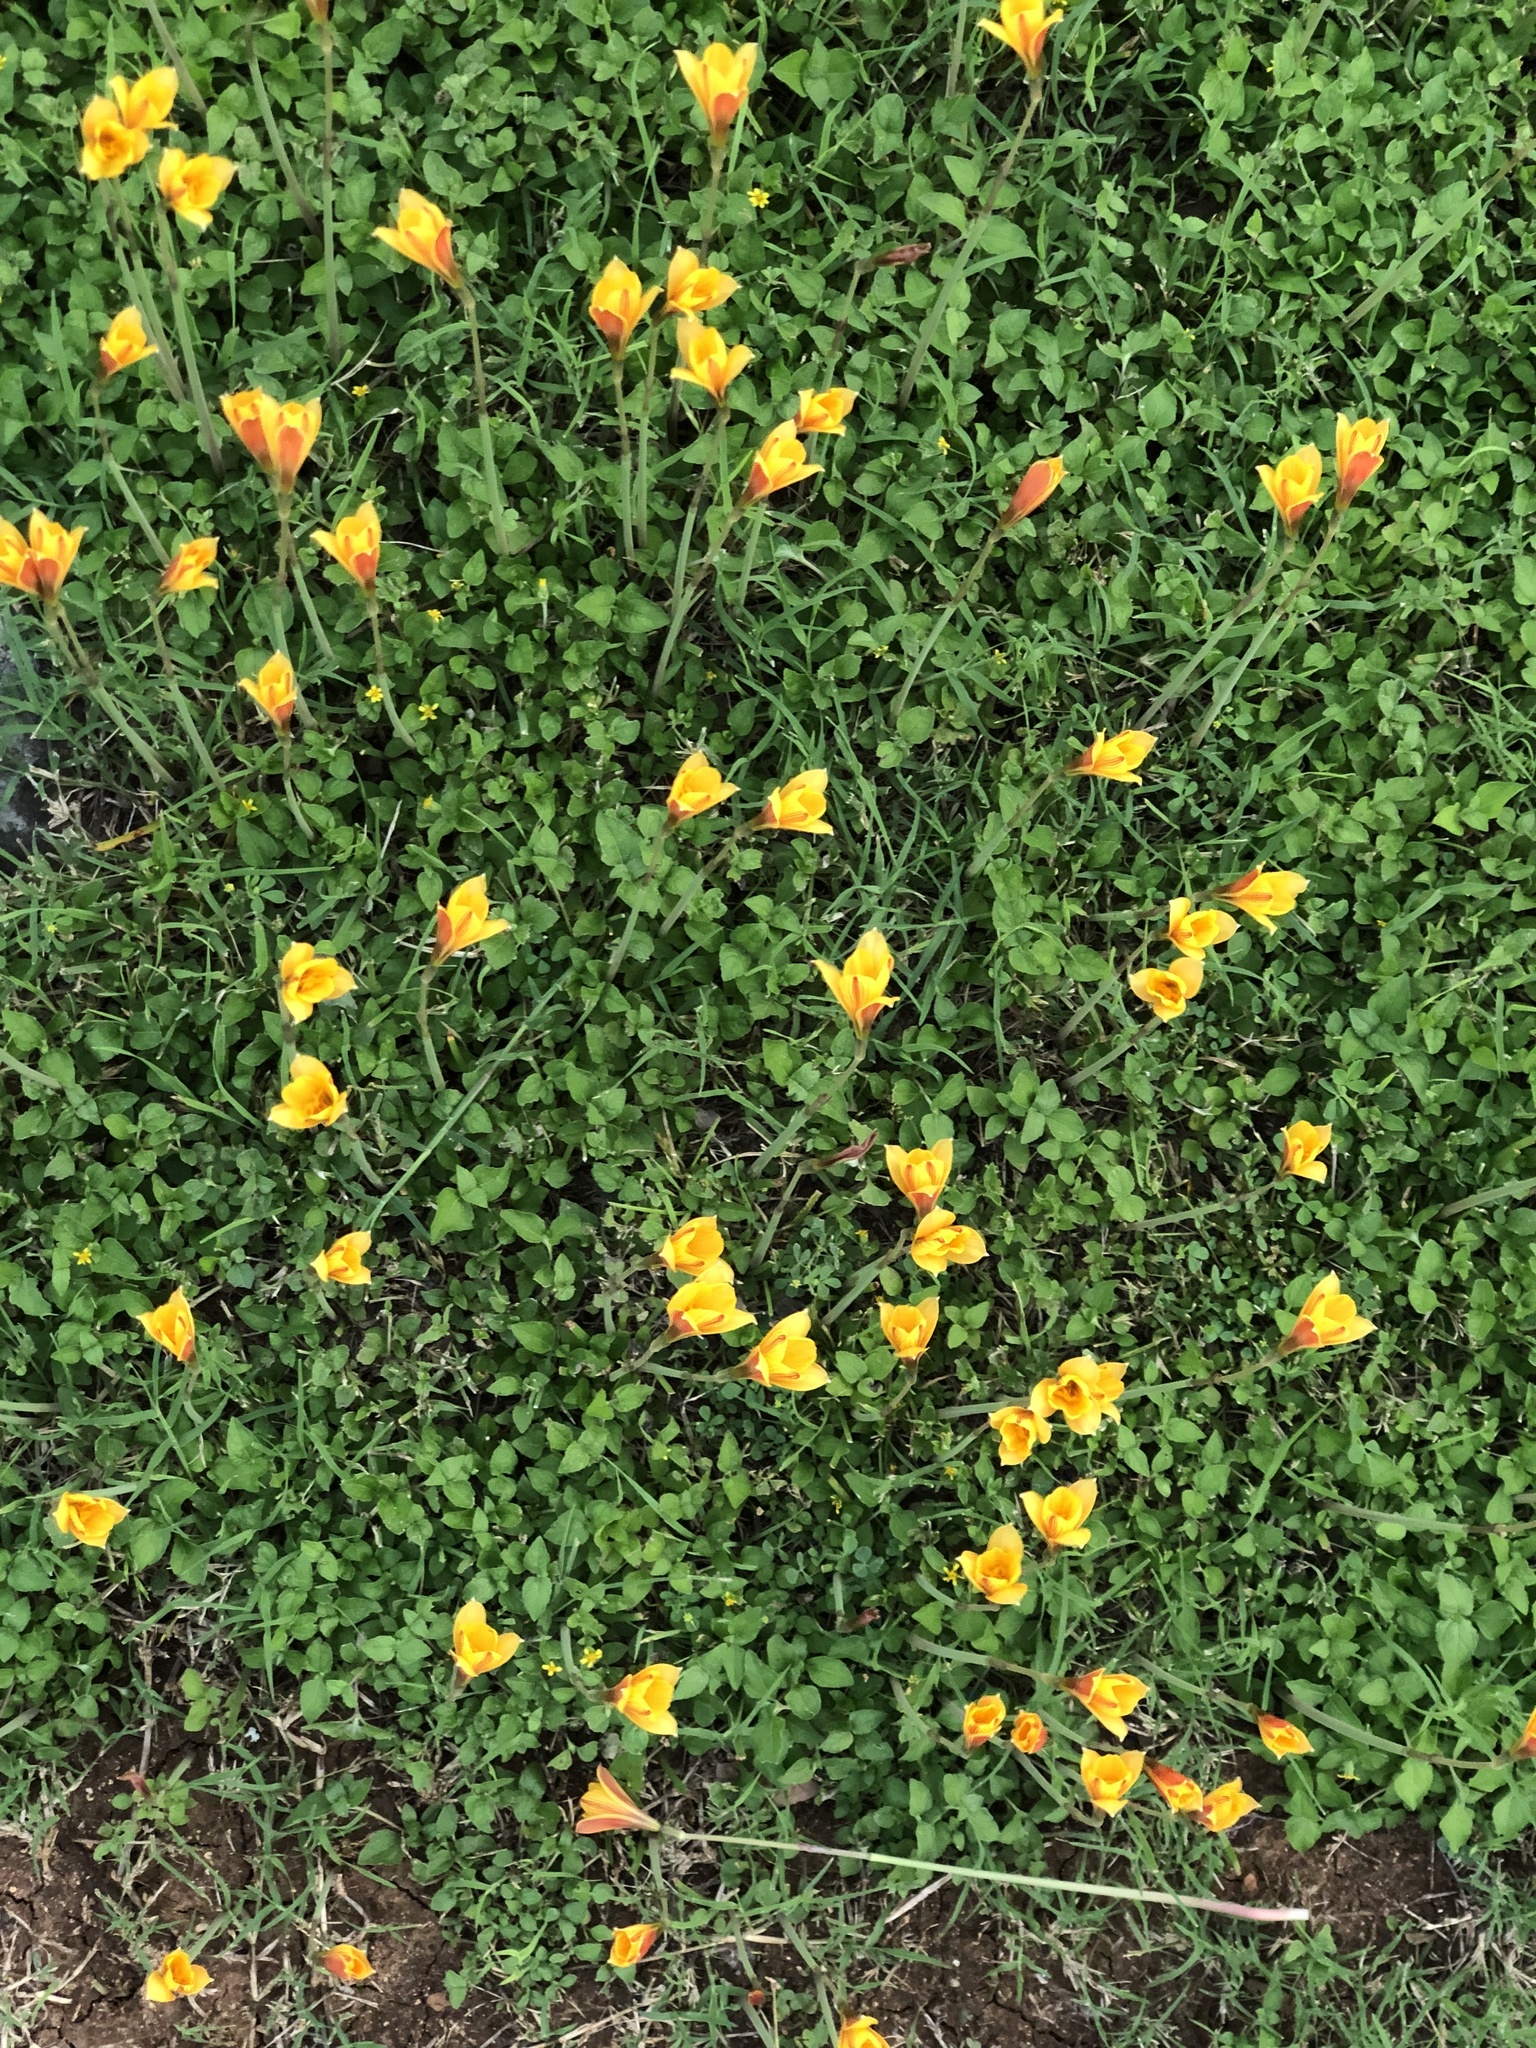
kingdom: Plantae
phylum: Tracheophyta
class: Liliopsida
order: Asparagales
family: Amaryllidaceae
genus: Zephyranthes
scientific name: Zephyranthes tubispatha
